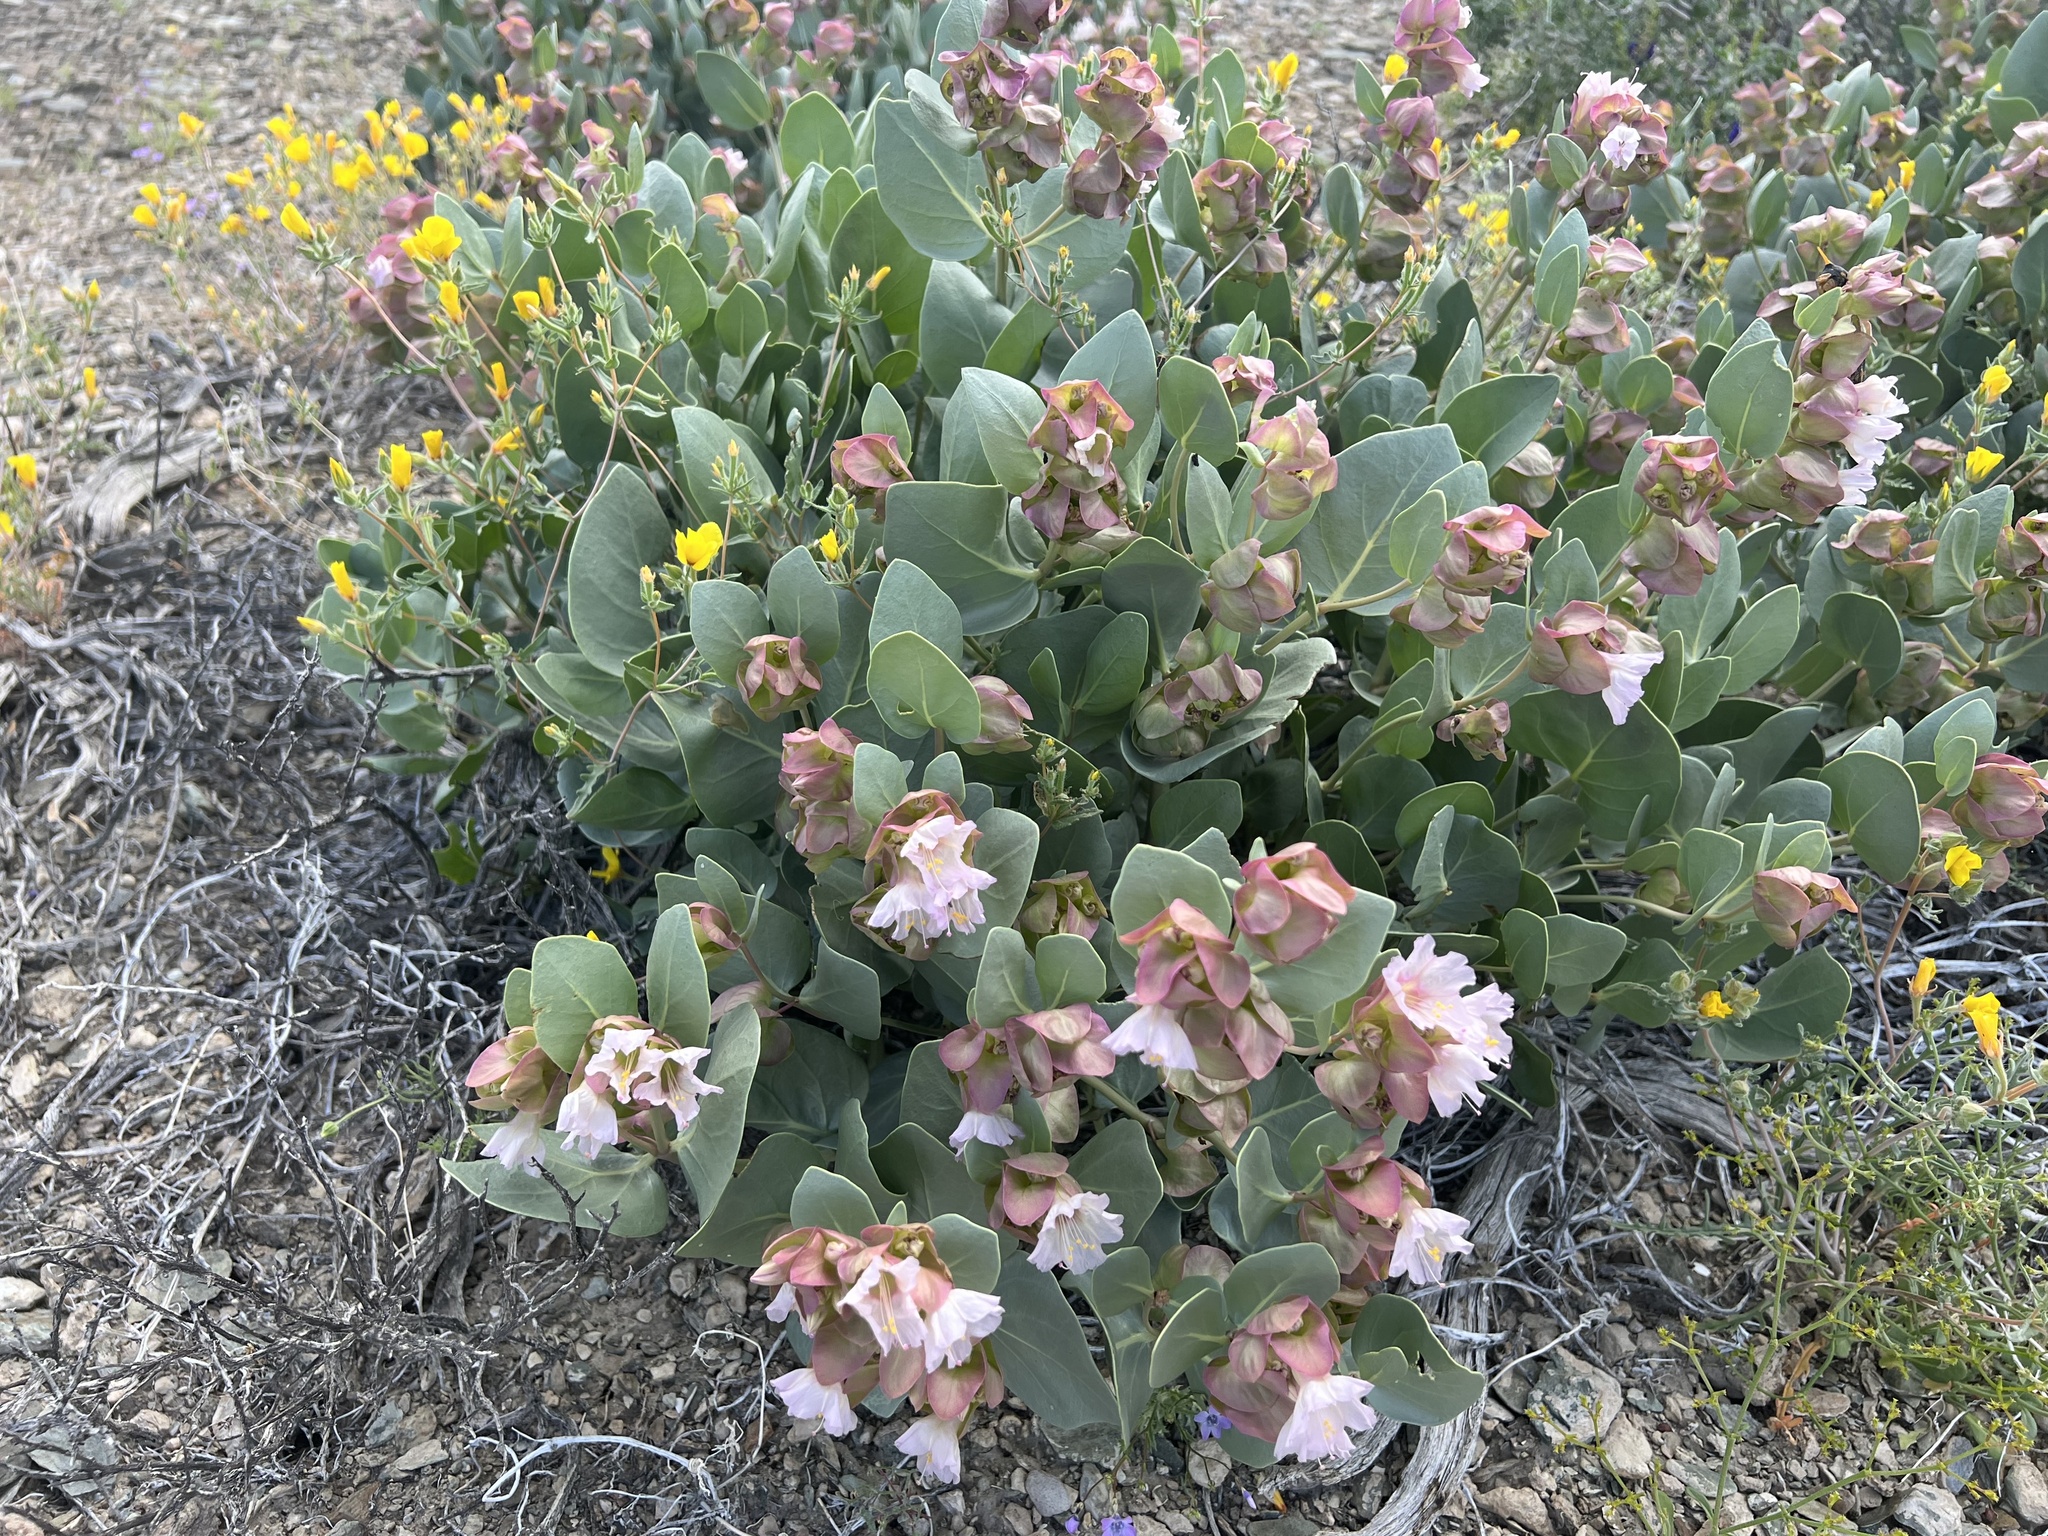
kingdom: Plantae
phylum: Tracheophyta
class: Magnoliopsida
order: Caryophyllales
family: Nyctaginaceae
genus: Mirabilis
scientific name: Mirabilis alipes
